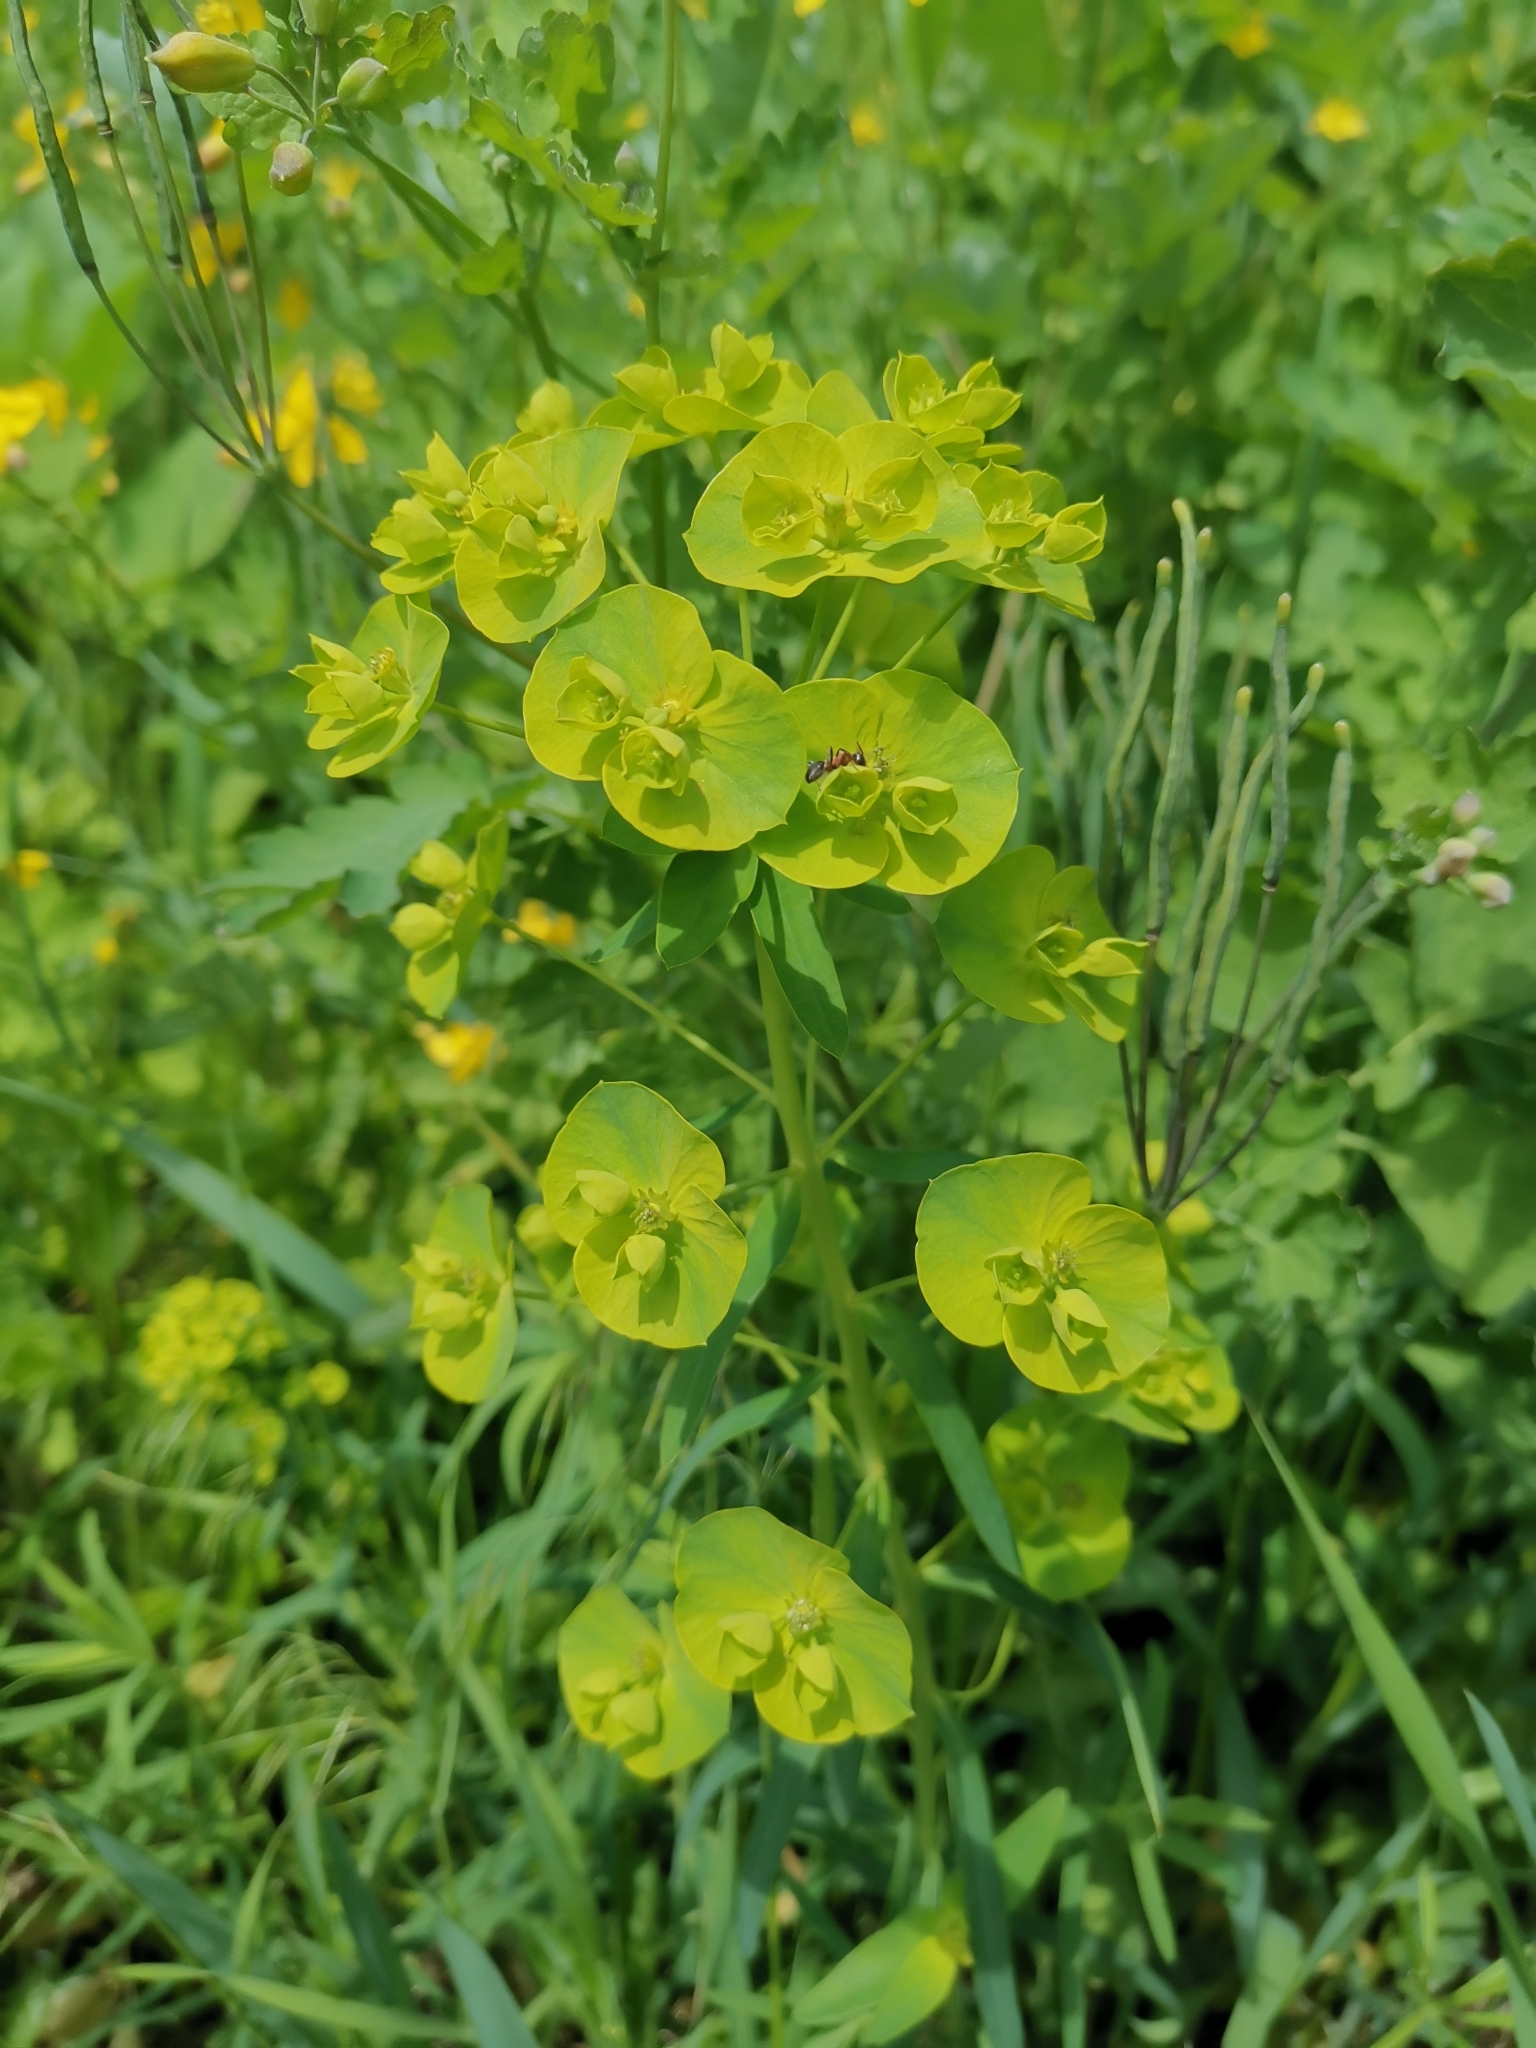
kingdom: Plantae
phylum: Tracheophyta
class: Magnoliopsida
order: Malpighiales
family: Euphorbiaceae
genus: Euphorbia
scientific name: Euphorbia esula
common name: Leafy spurge
